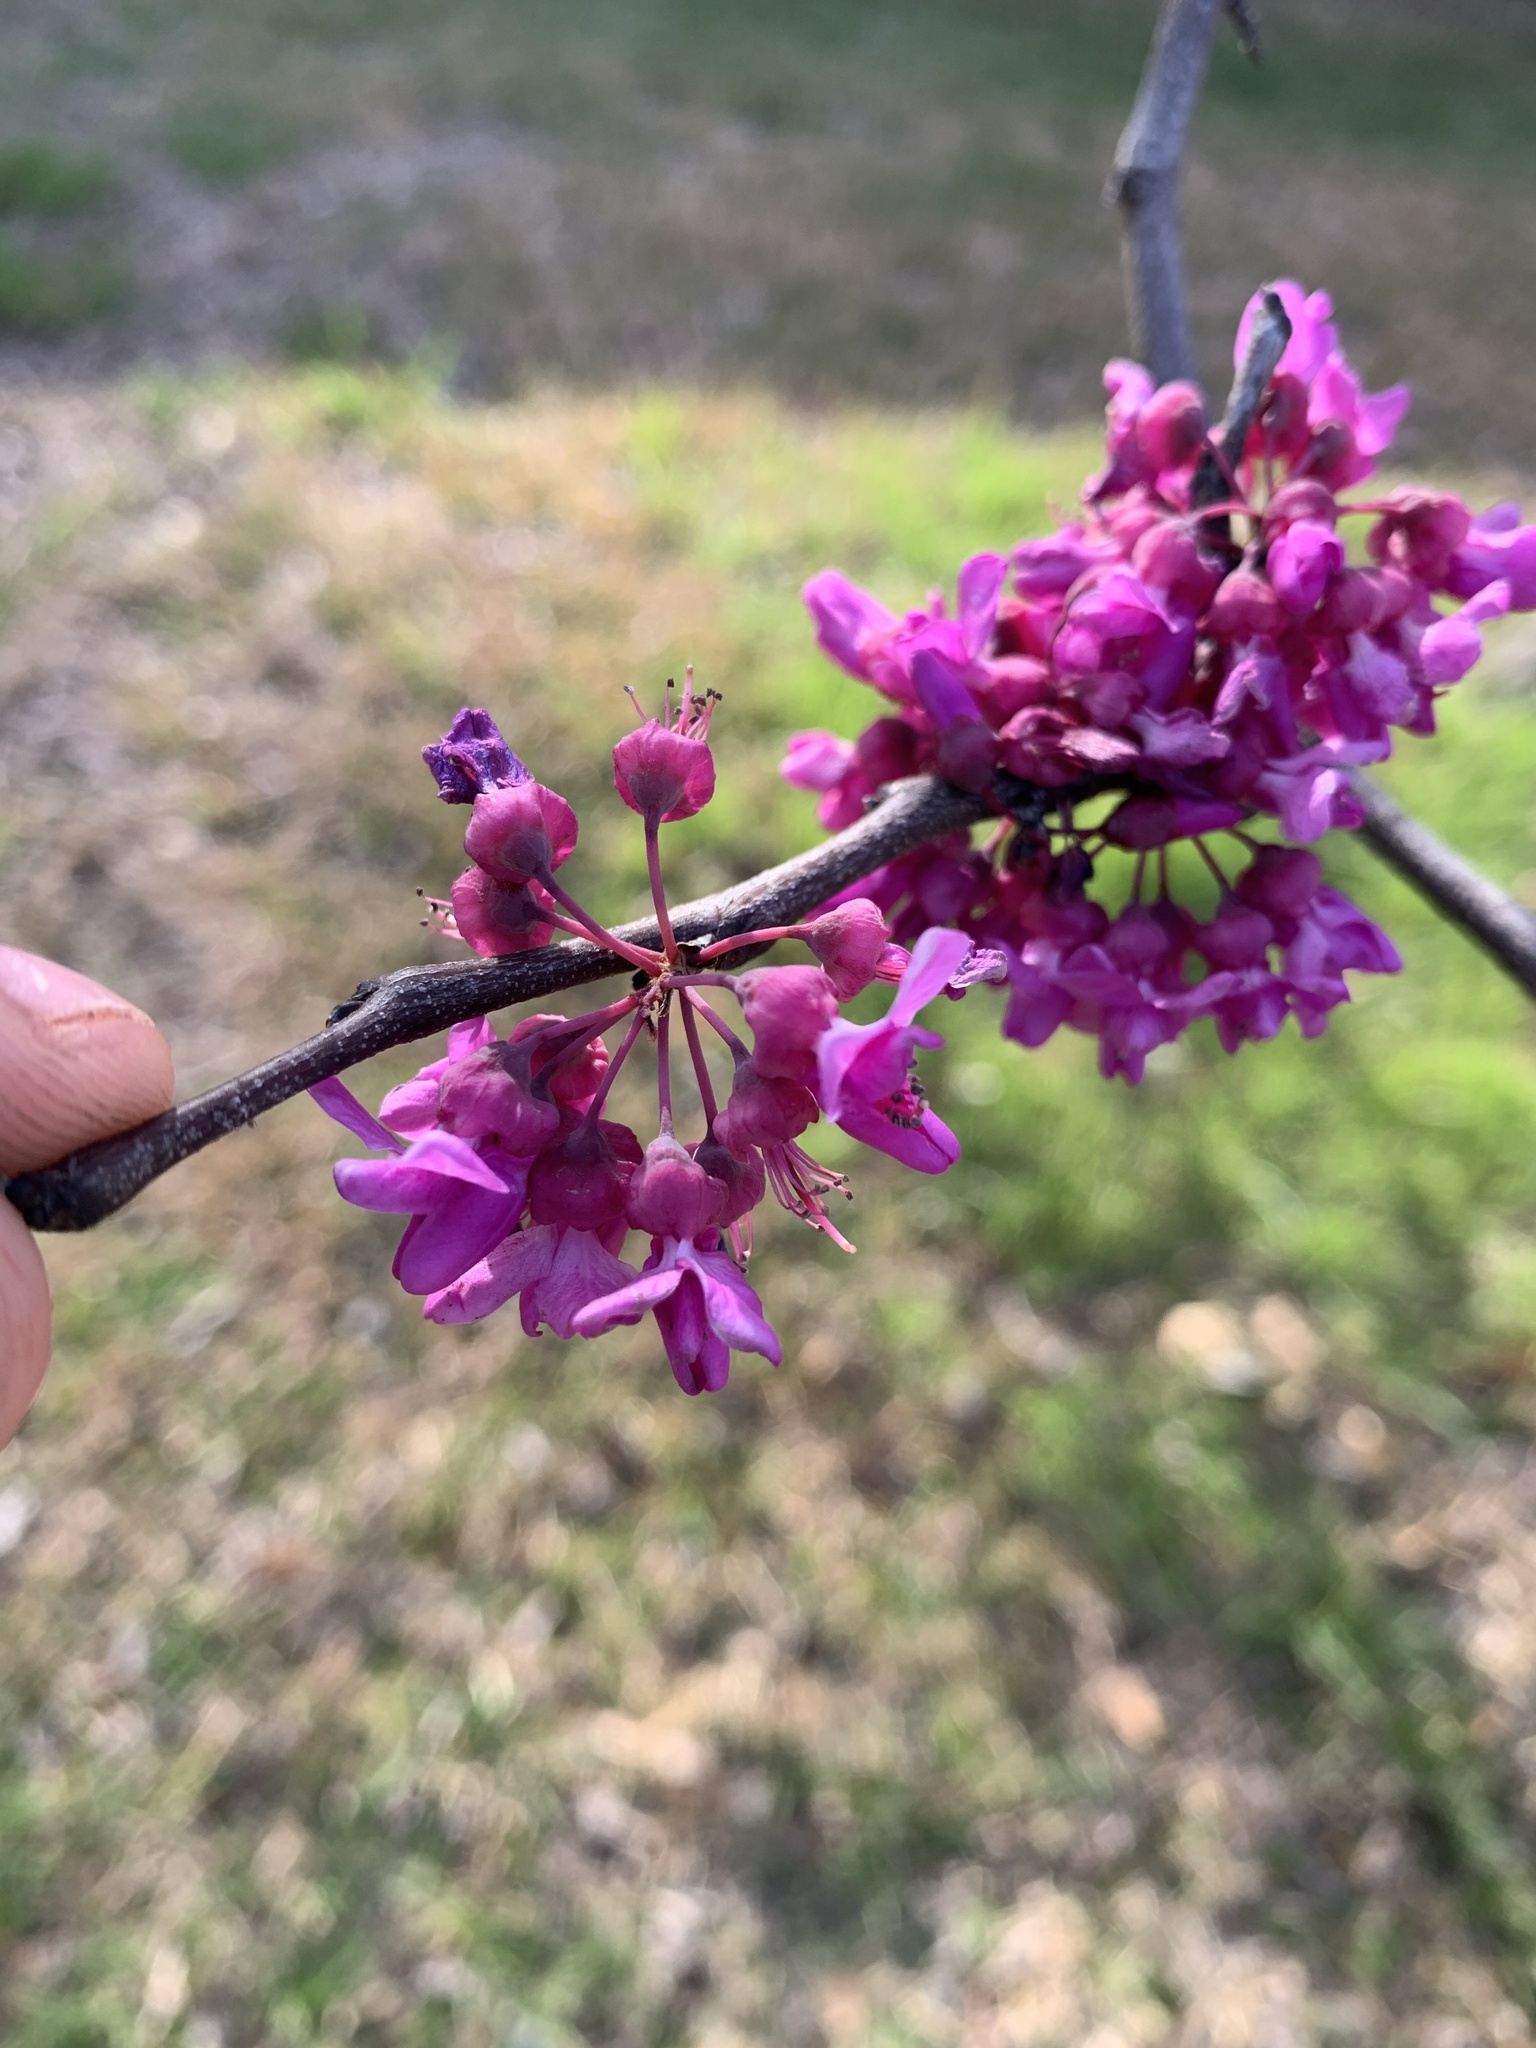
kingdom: Plantae
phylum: Tracheophyta
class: Magnoliopsida
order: Fabales
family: Fabaceae
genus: Cercis
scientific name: Cercis canadensis
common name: Eastern redbud
